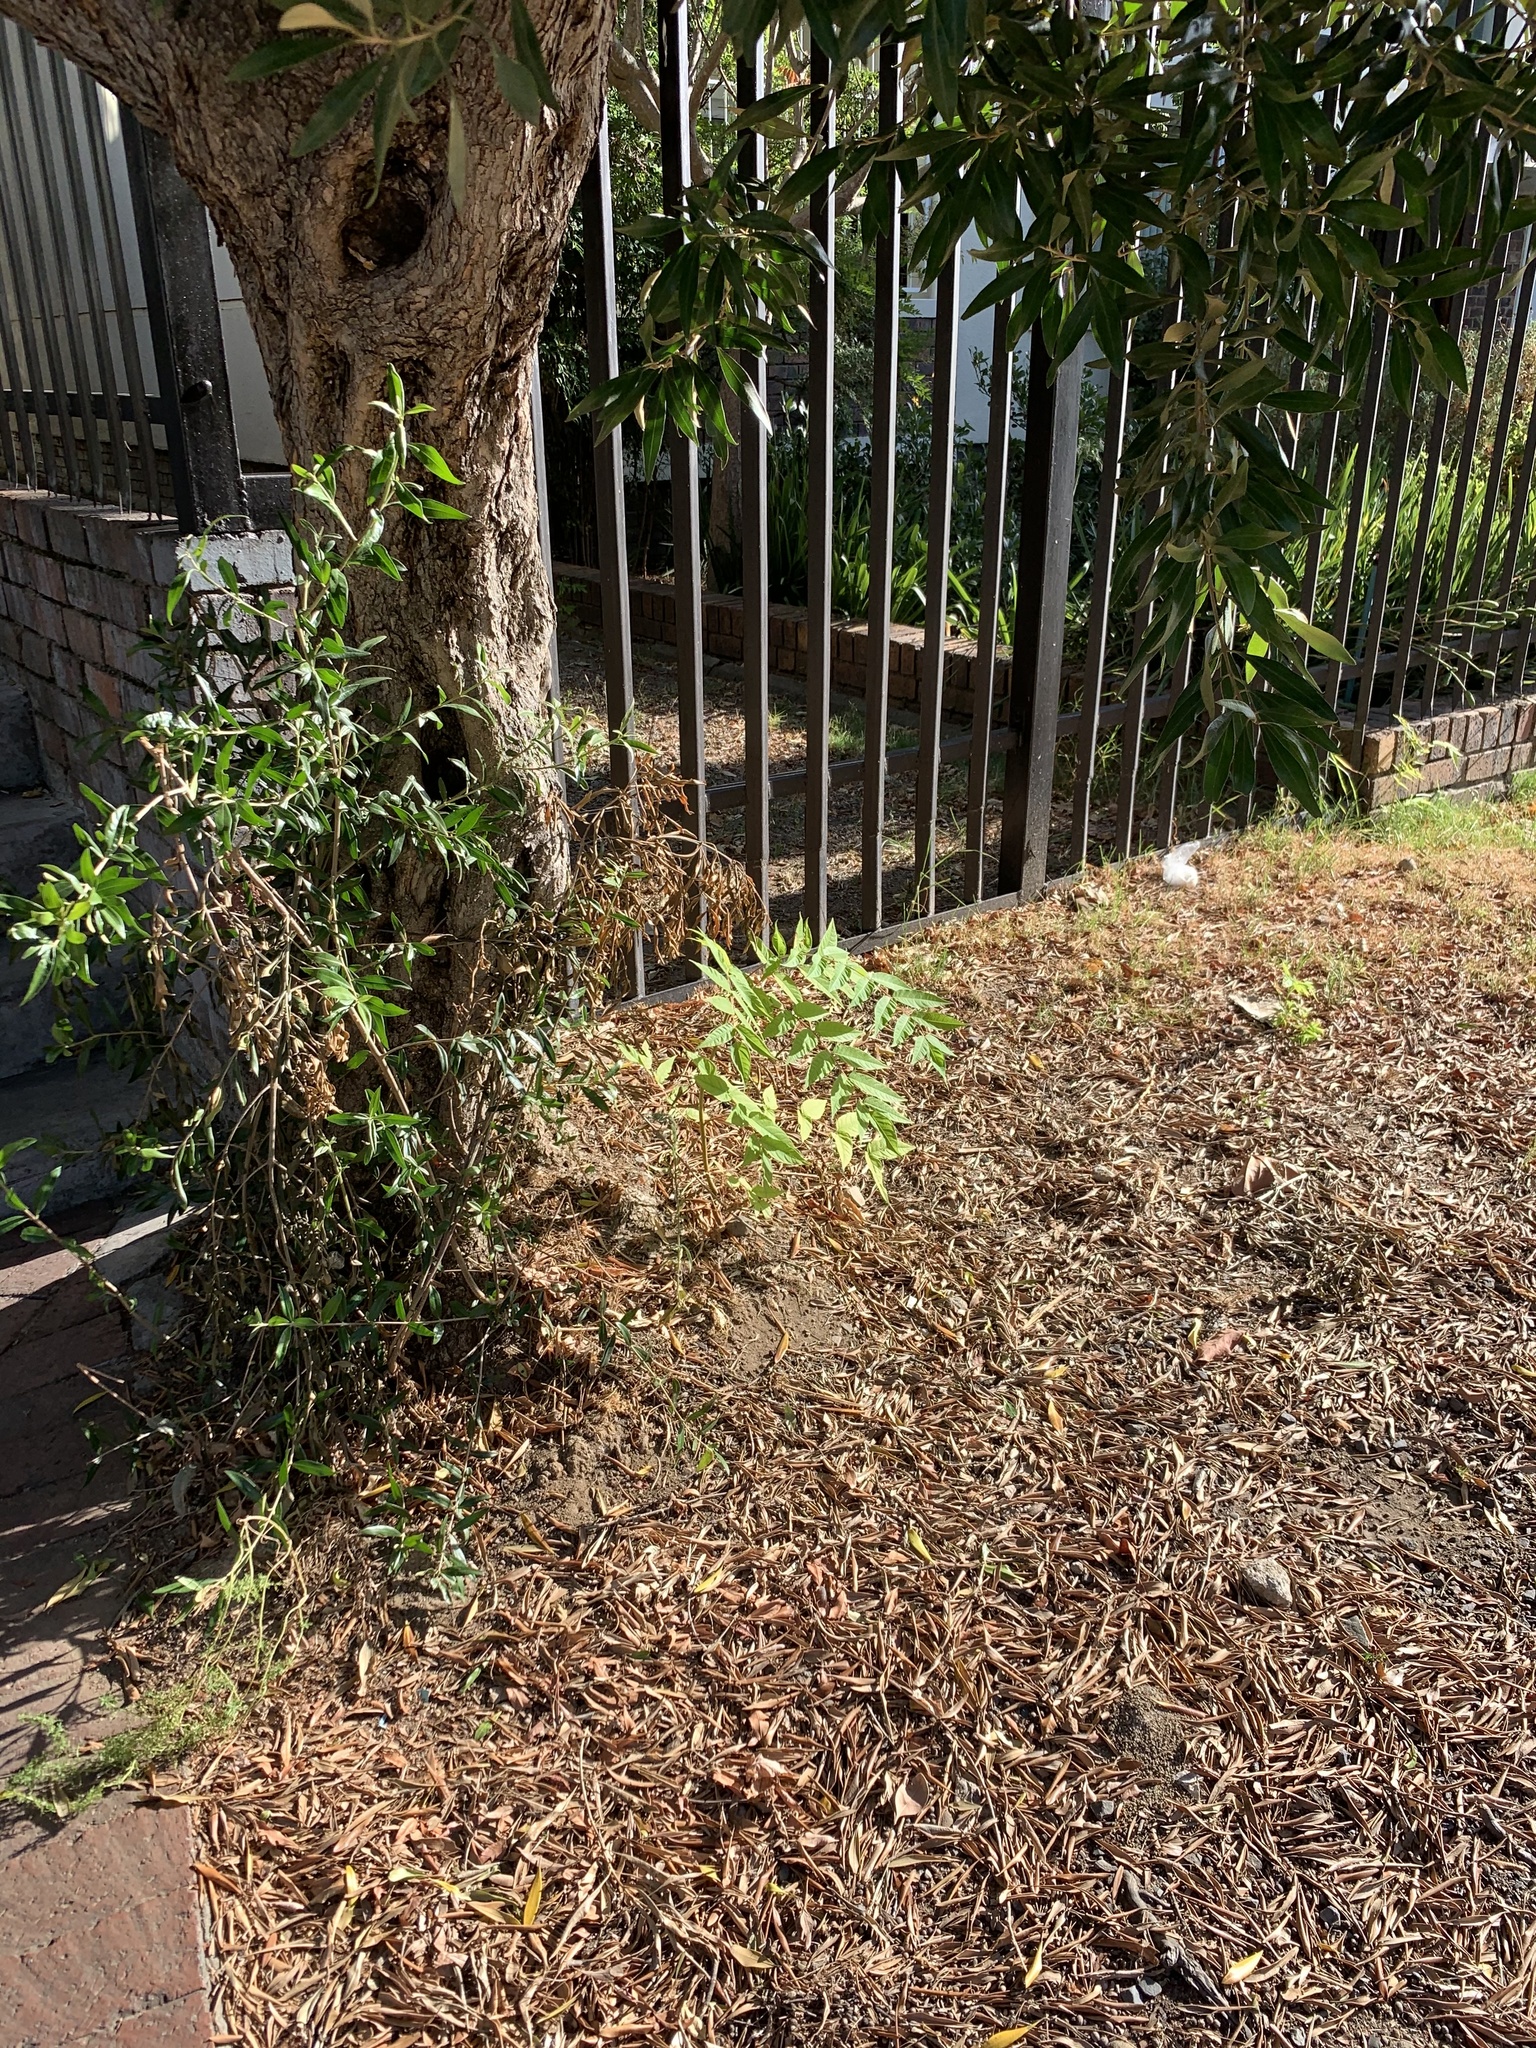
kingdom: Plantae
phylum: Tracheophyta
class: Magnoliopsida
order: Sapindales
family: Simaroubaceae
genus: Ailanthus
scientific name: Ailanthus altissima
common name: Tree-of-heaven
